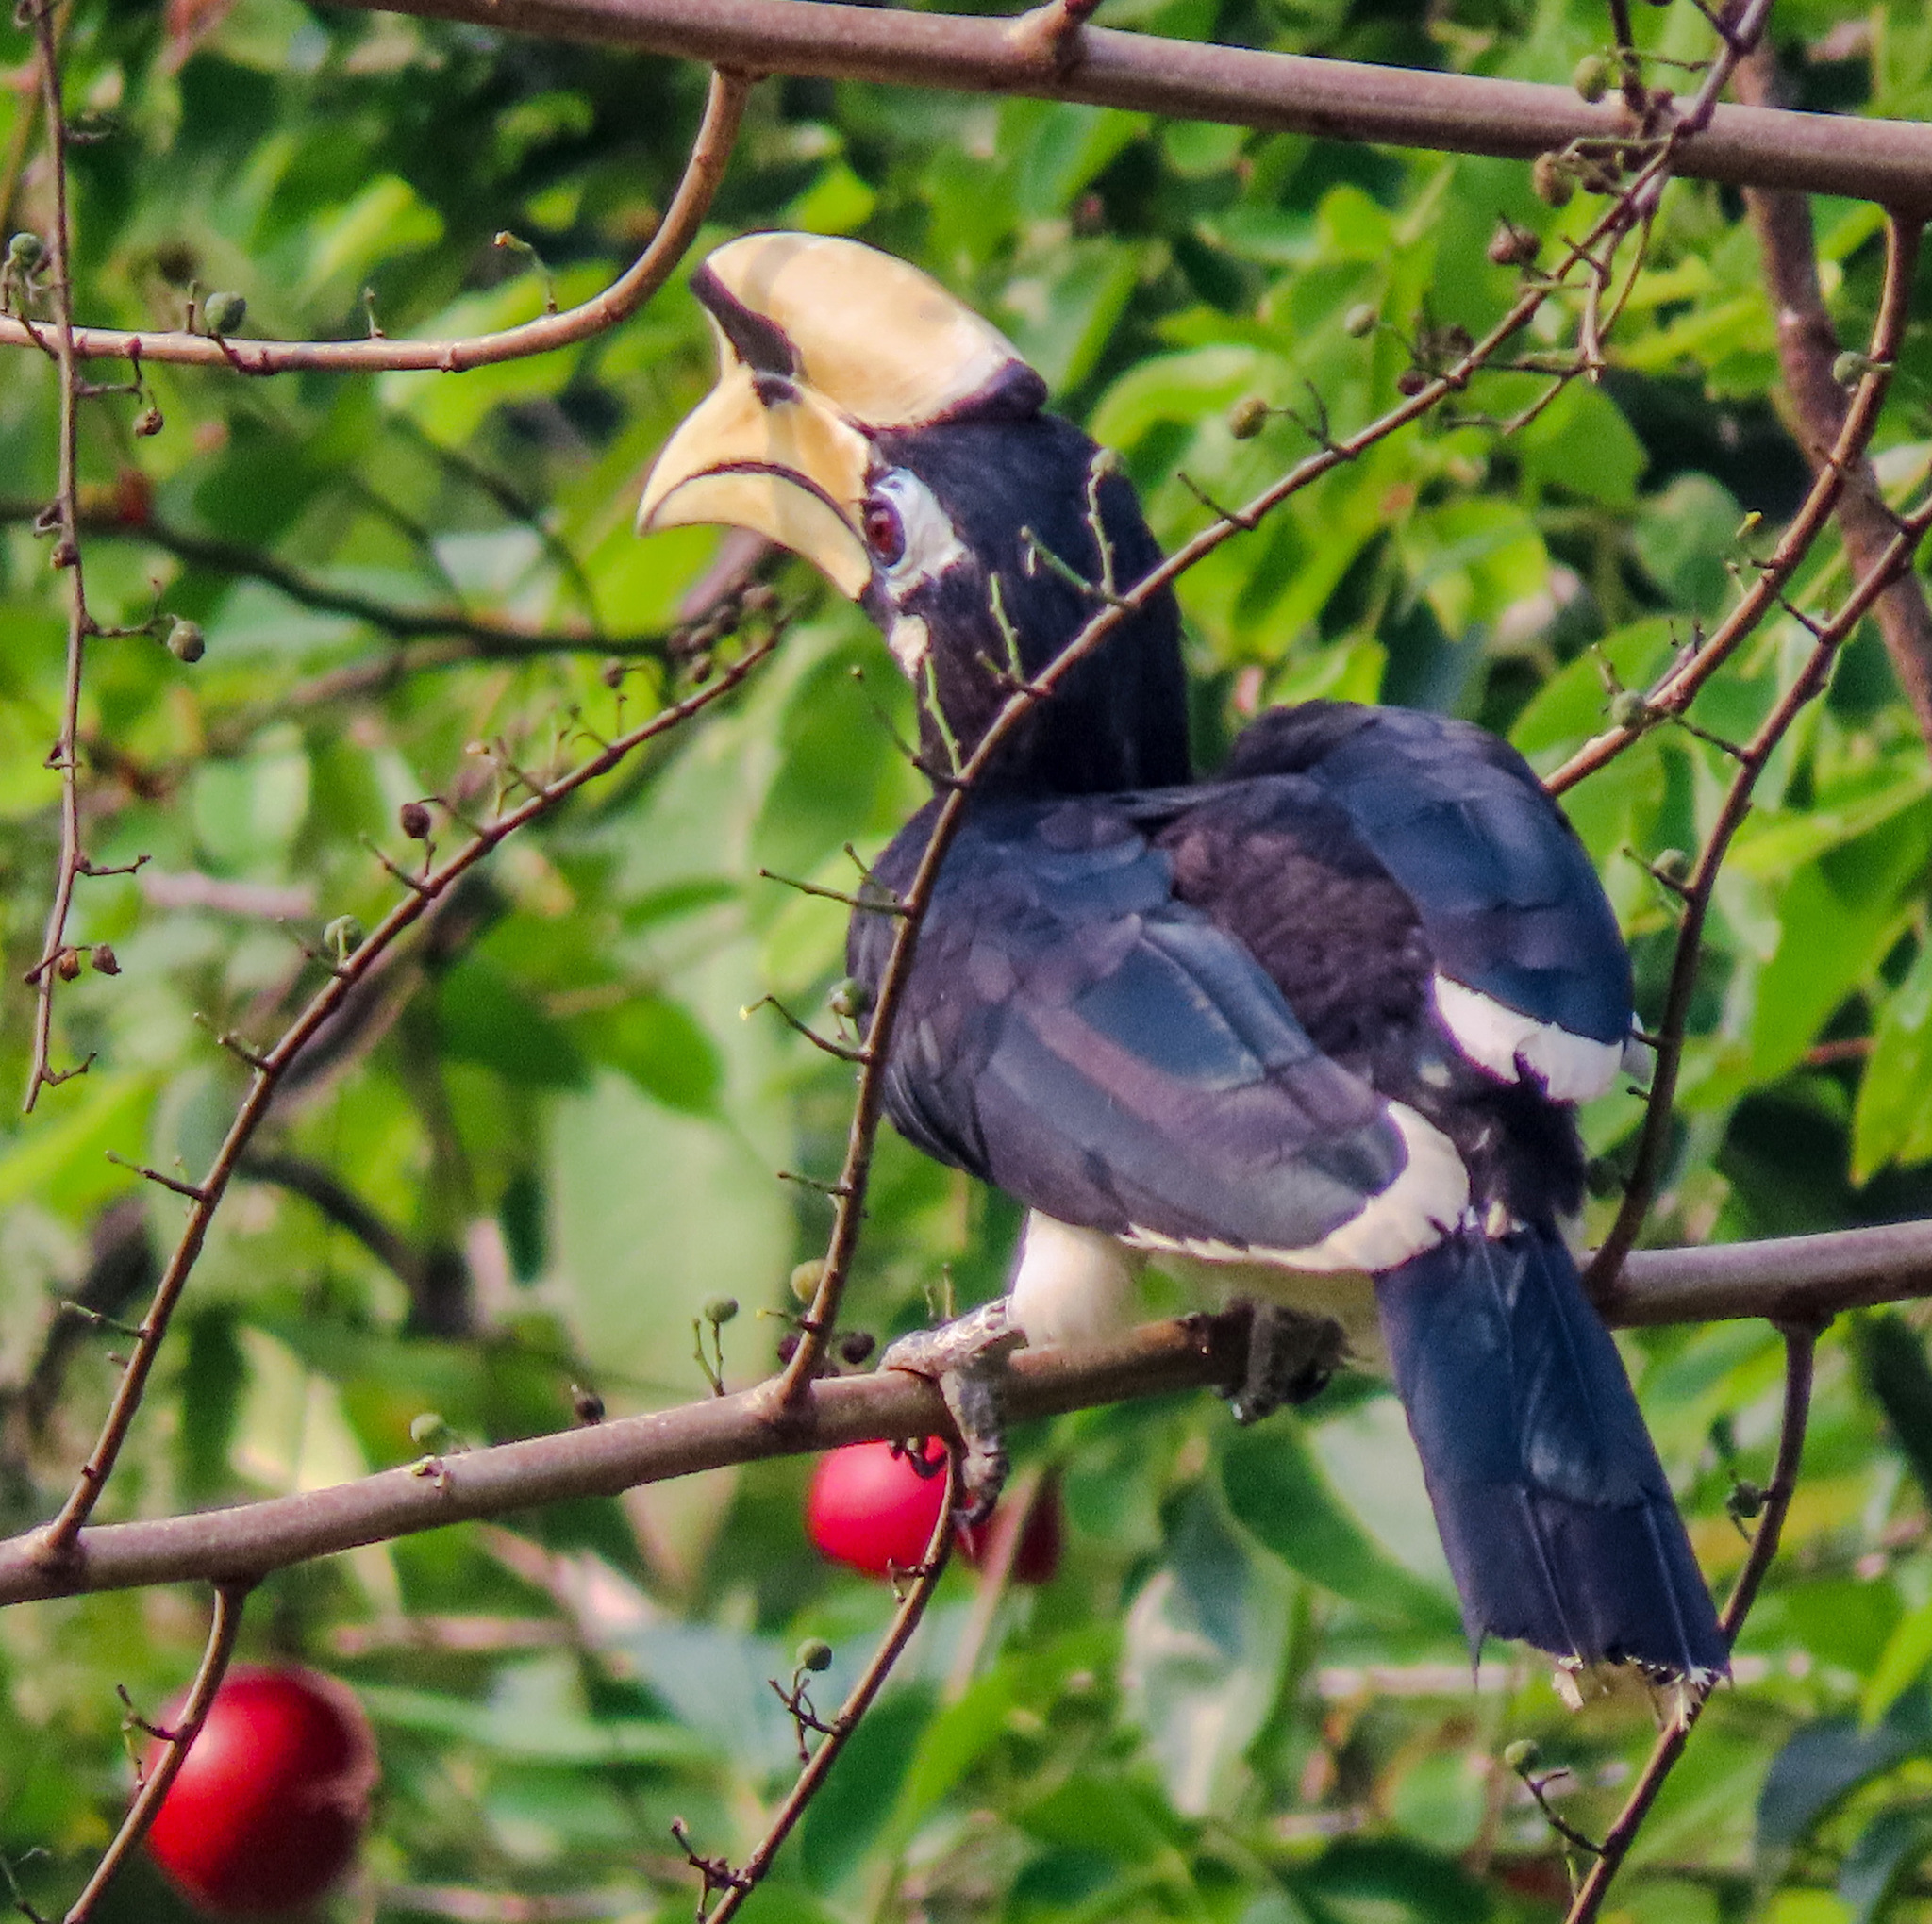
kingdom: Animalia
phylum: Chordata
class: Aves
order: Bucerotiformes
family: Bucerotidae
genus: Anthracoceros
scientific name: Anthracoceros albirostris
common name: Oriental pied-hornbill
